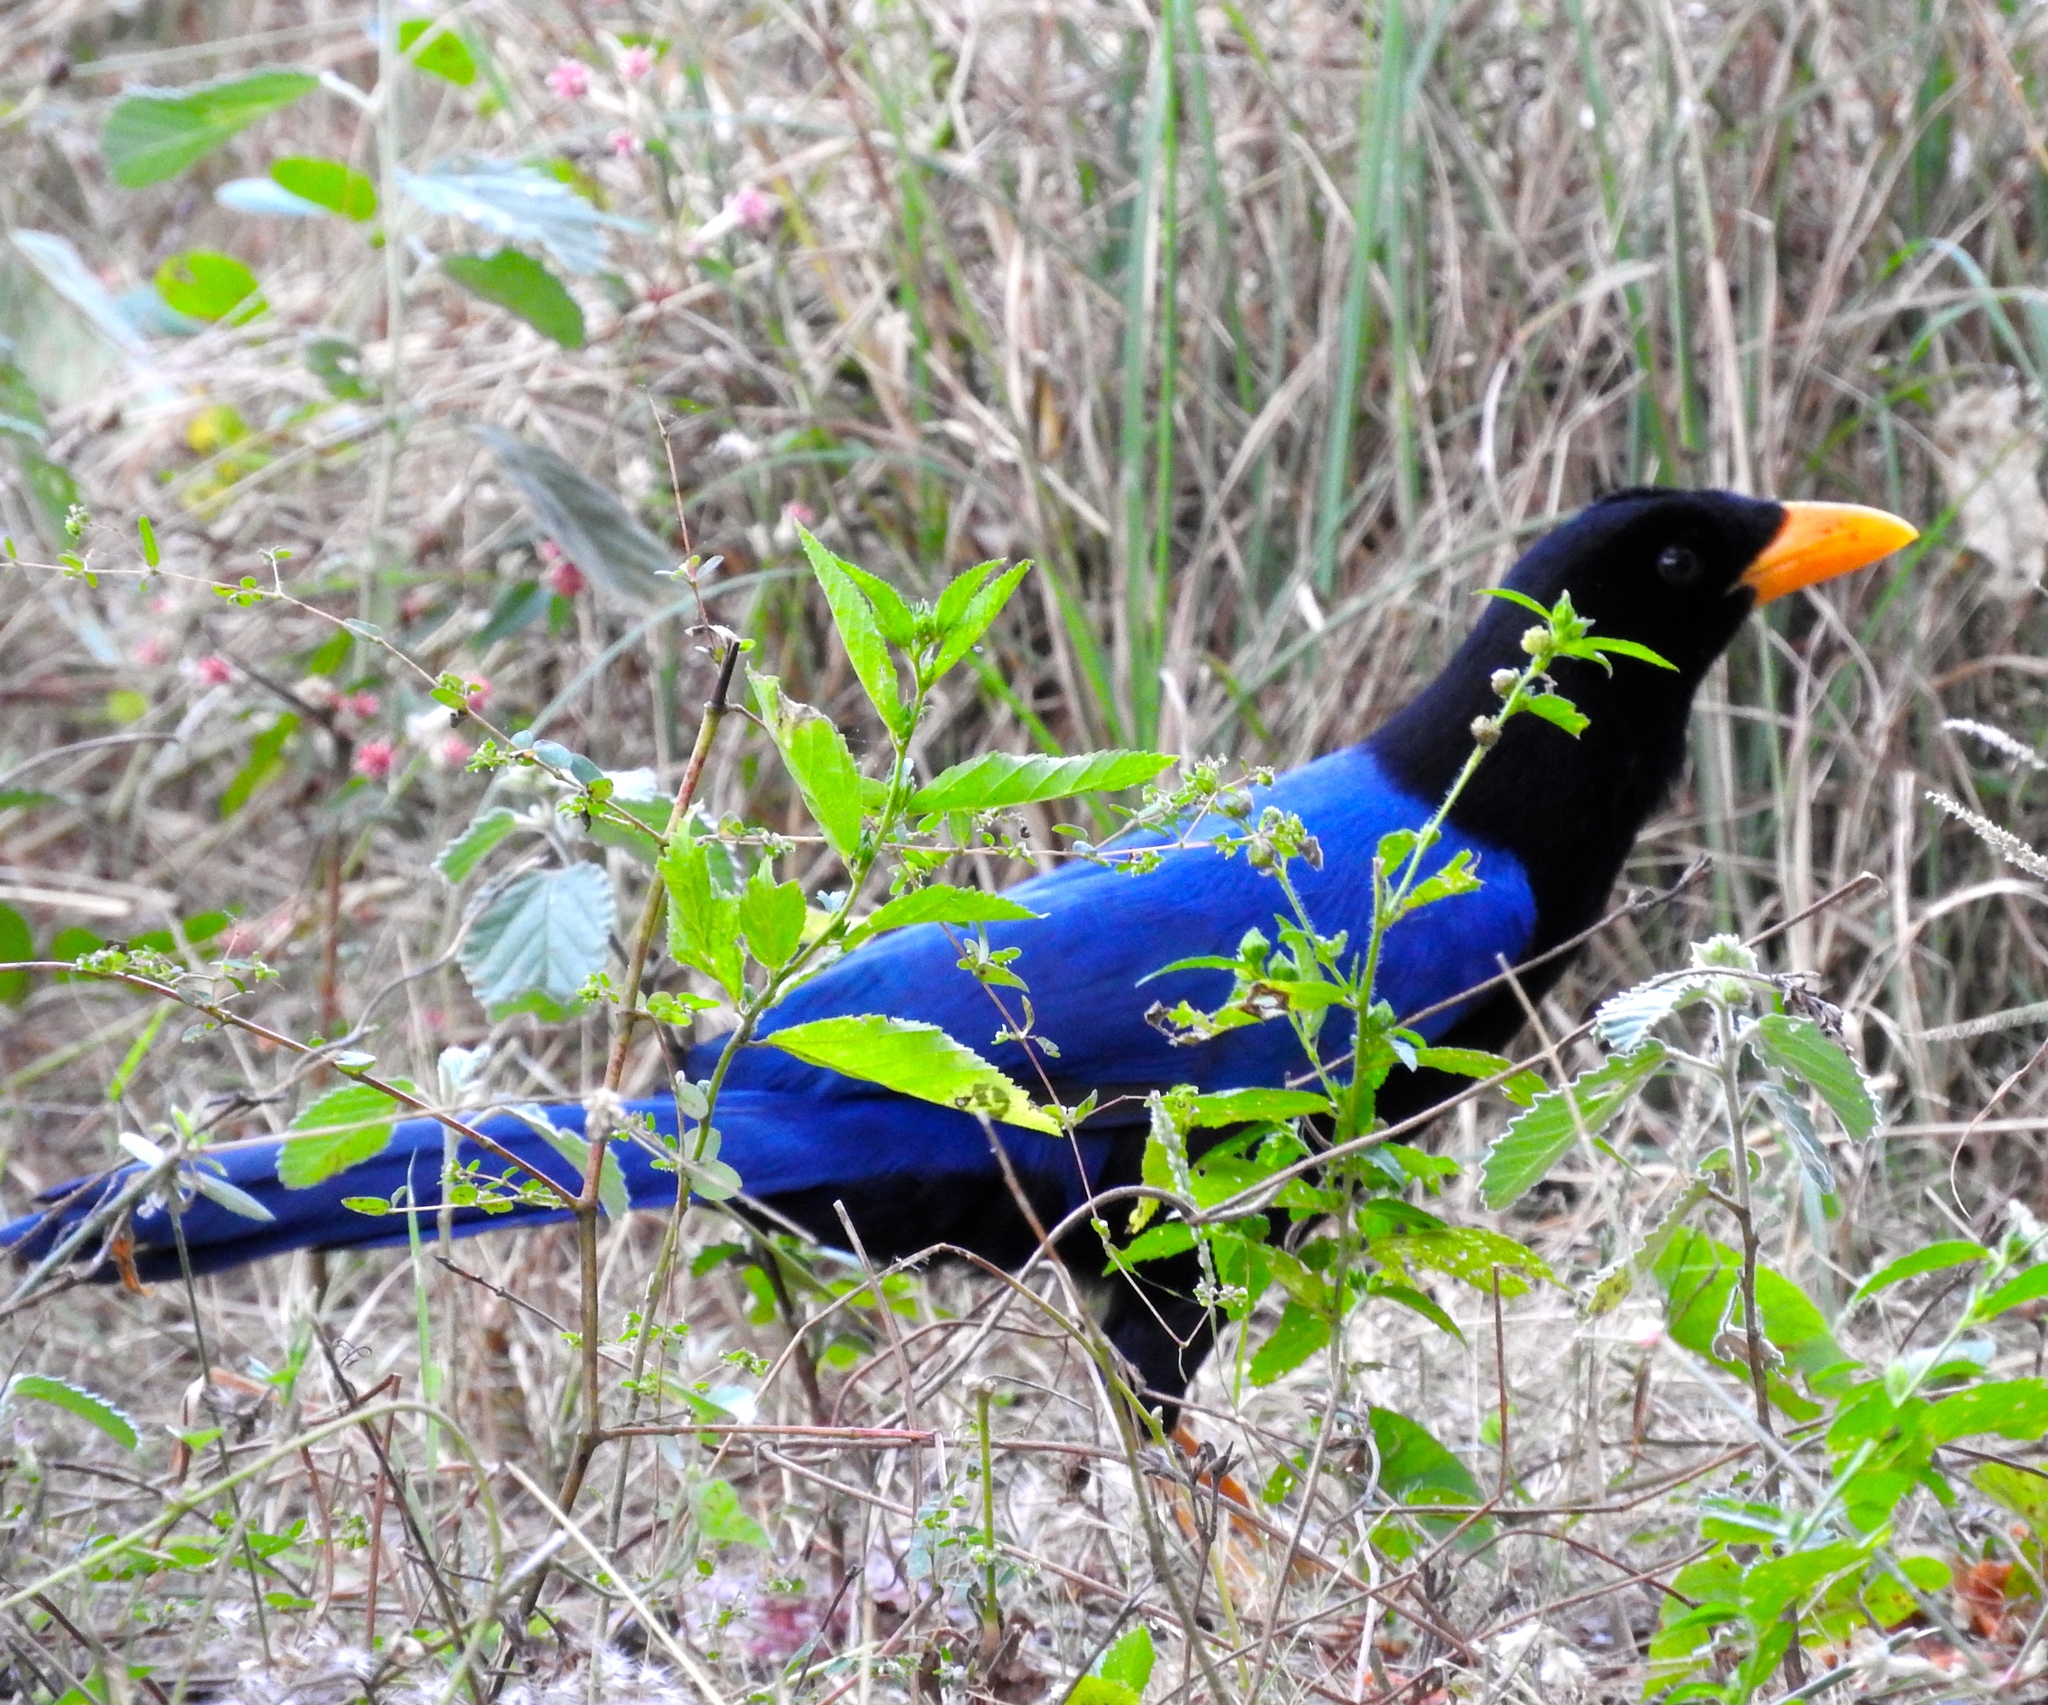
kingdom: Animalia
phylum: Chordata
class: Aves
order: Passeriformes
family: Corvidae
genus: Cyanocorax
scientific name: Cyanocorax beecheii
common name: Purplish-backed jay
